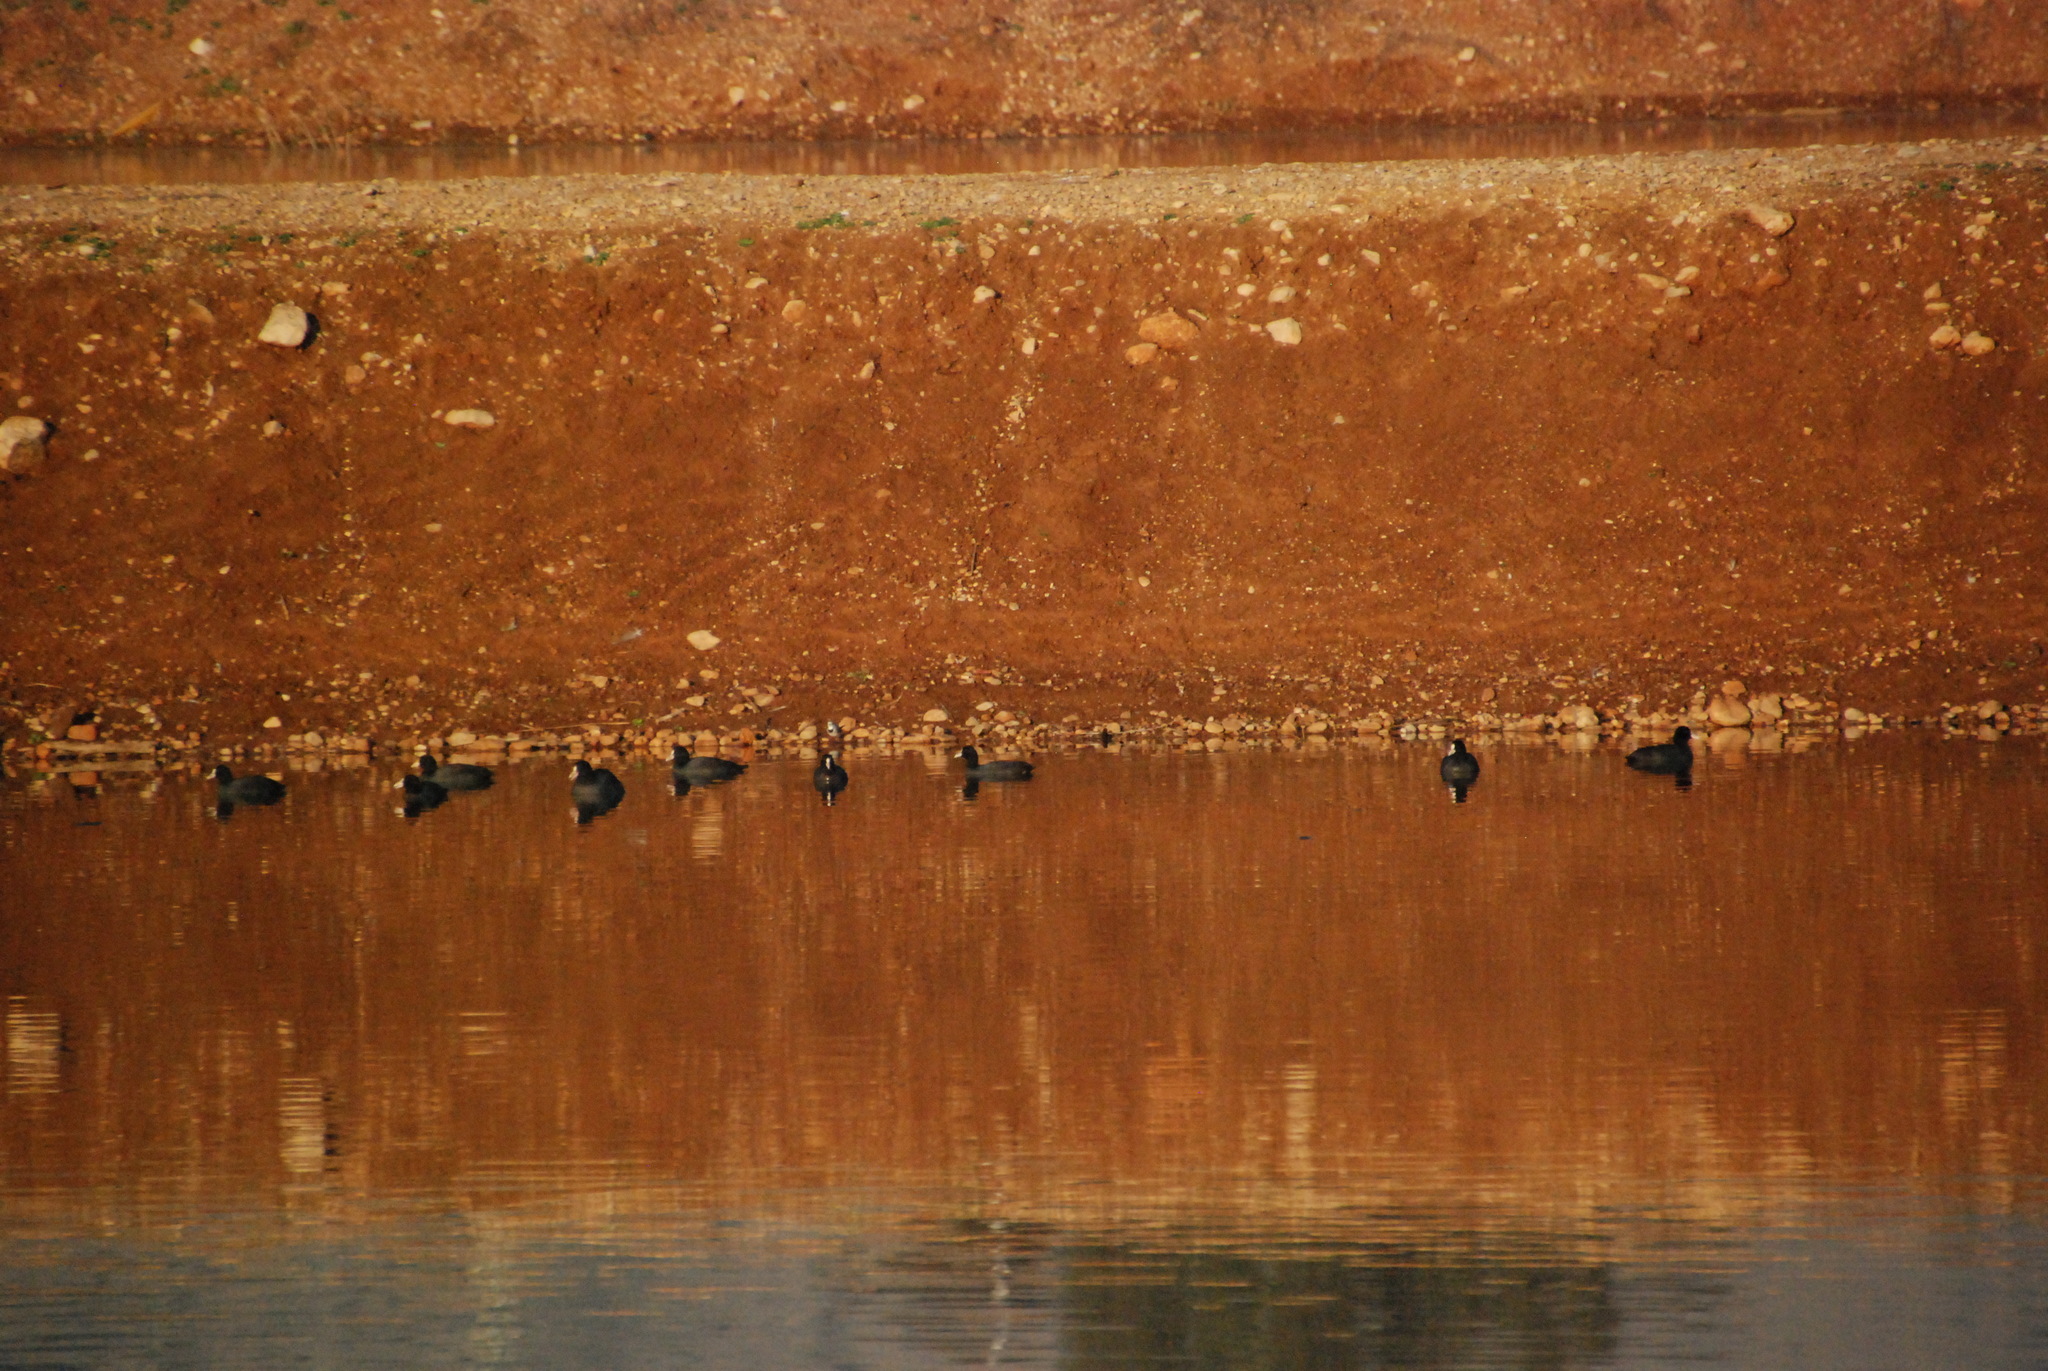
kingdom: Animalia
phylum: Chordata
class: Aves
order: Gruiformes
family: Rallidae
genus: Fulica
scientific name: Fulica atra
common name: Eurasian coot
